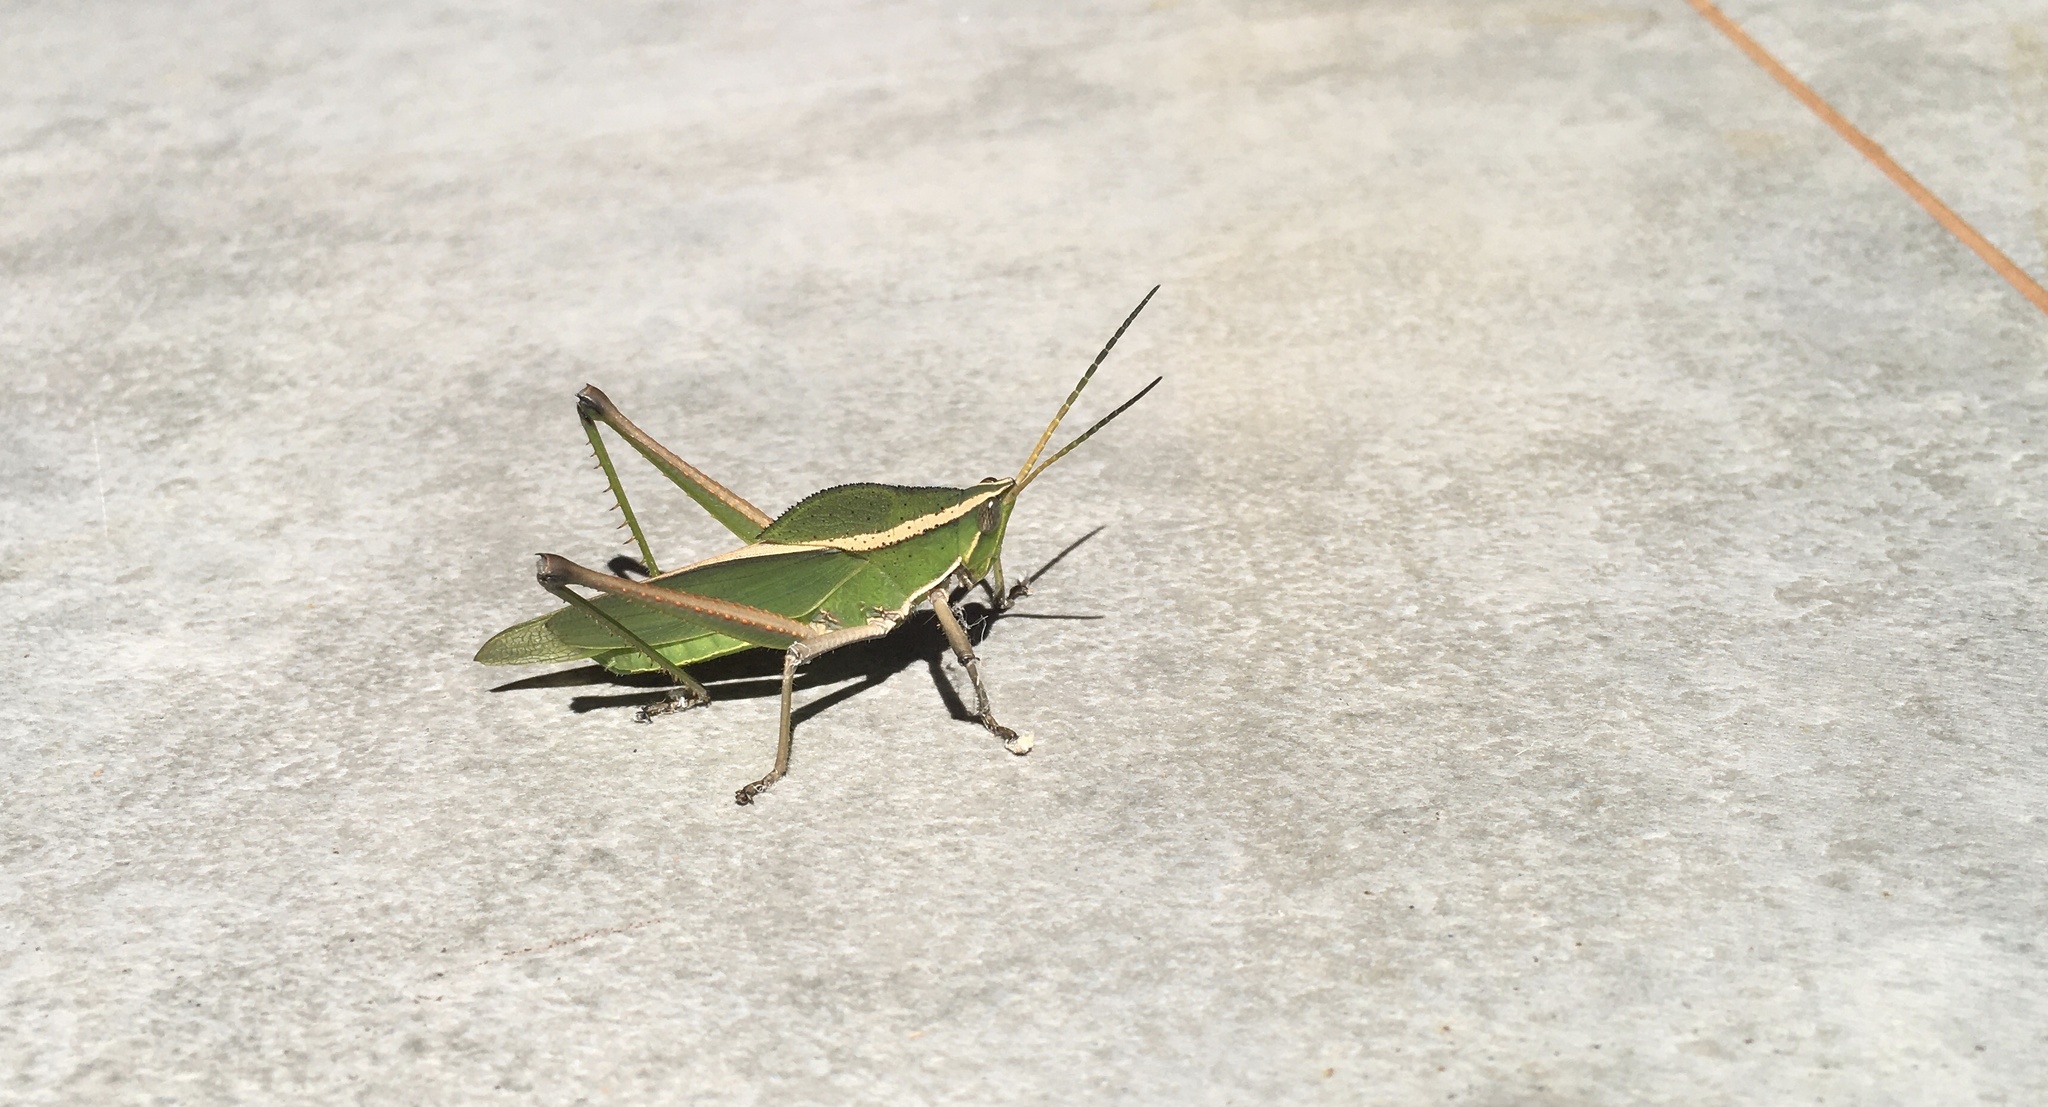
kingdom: Animalia
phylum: Arthropoda
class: Insecta
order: Orthoptera
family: Romaleidae
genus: Prionolopha
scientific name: Prionolopha serrata
